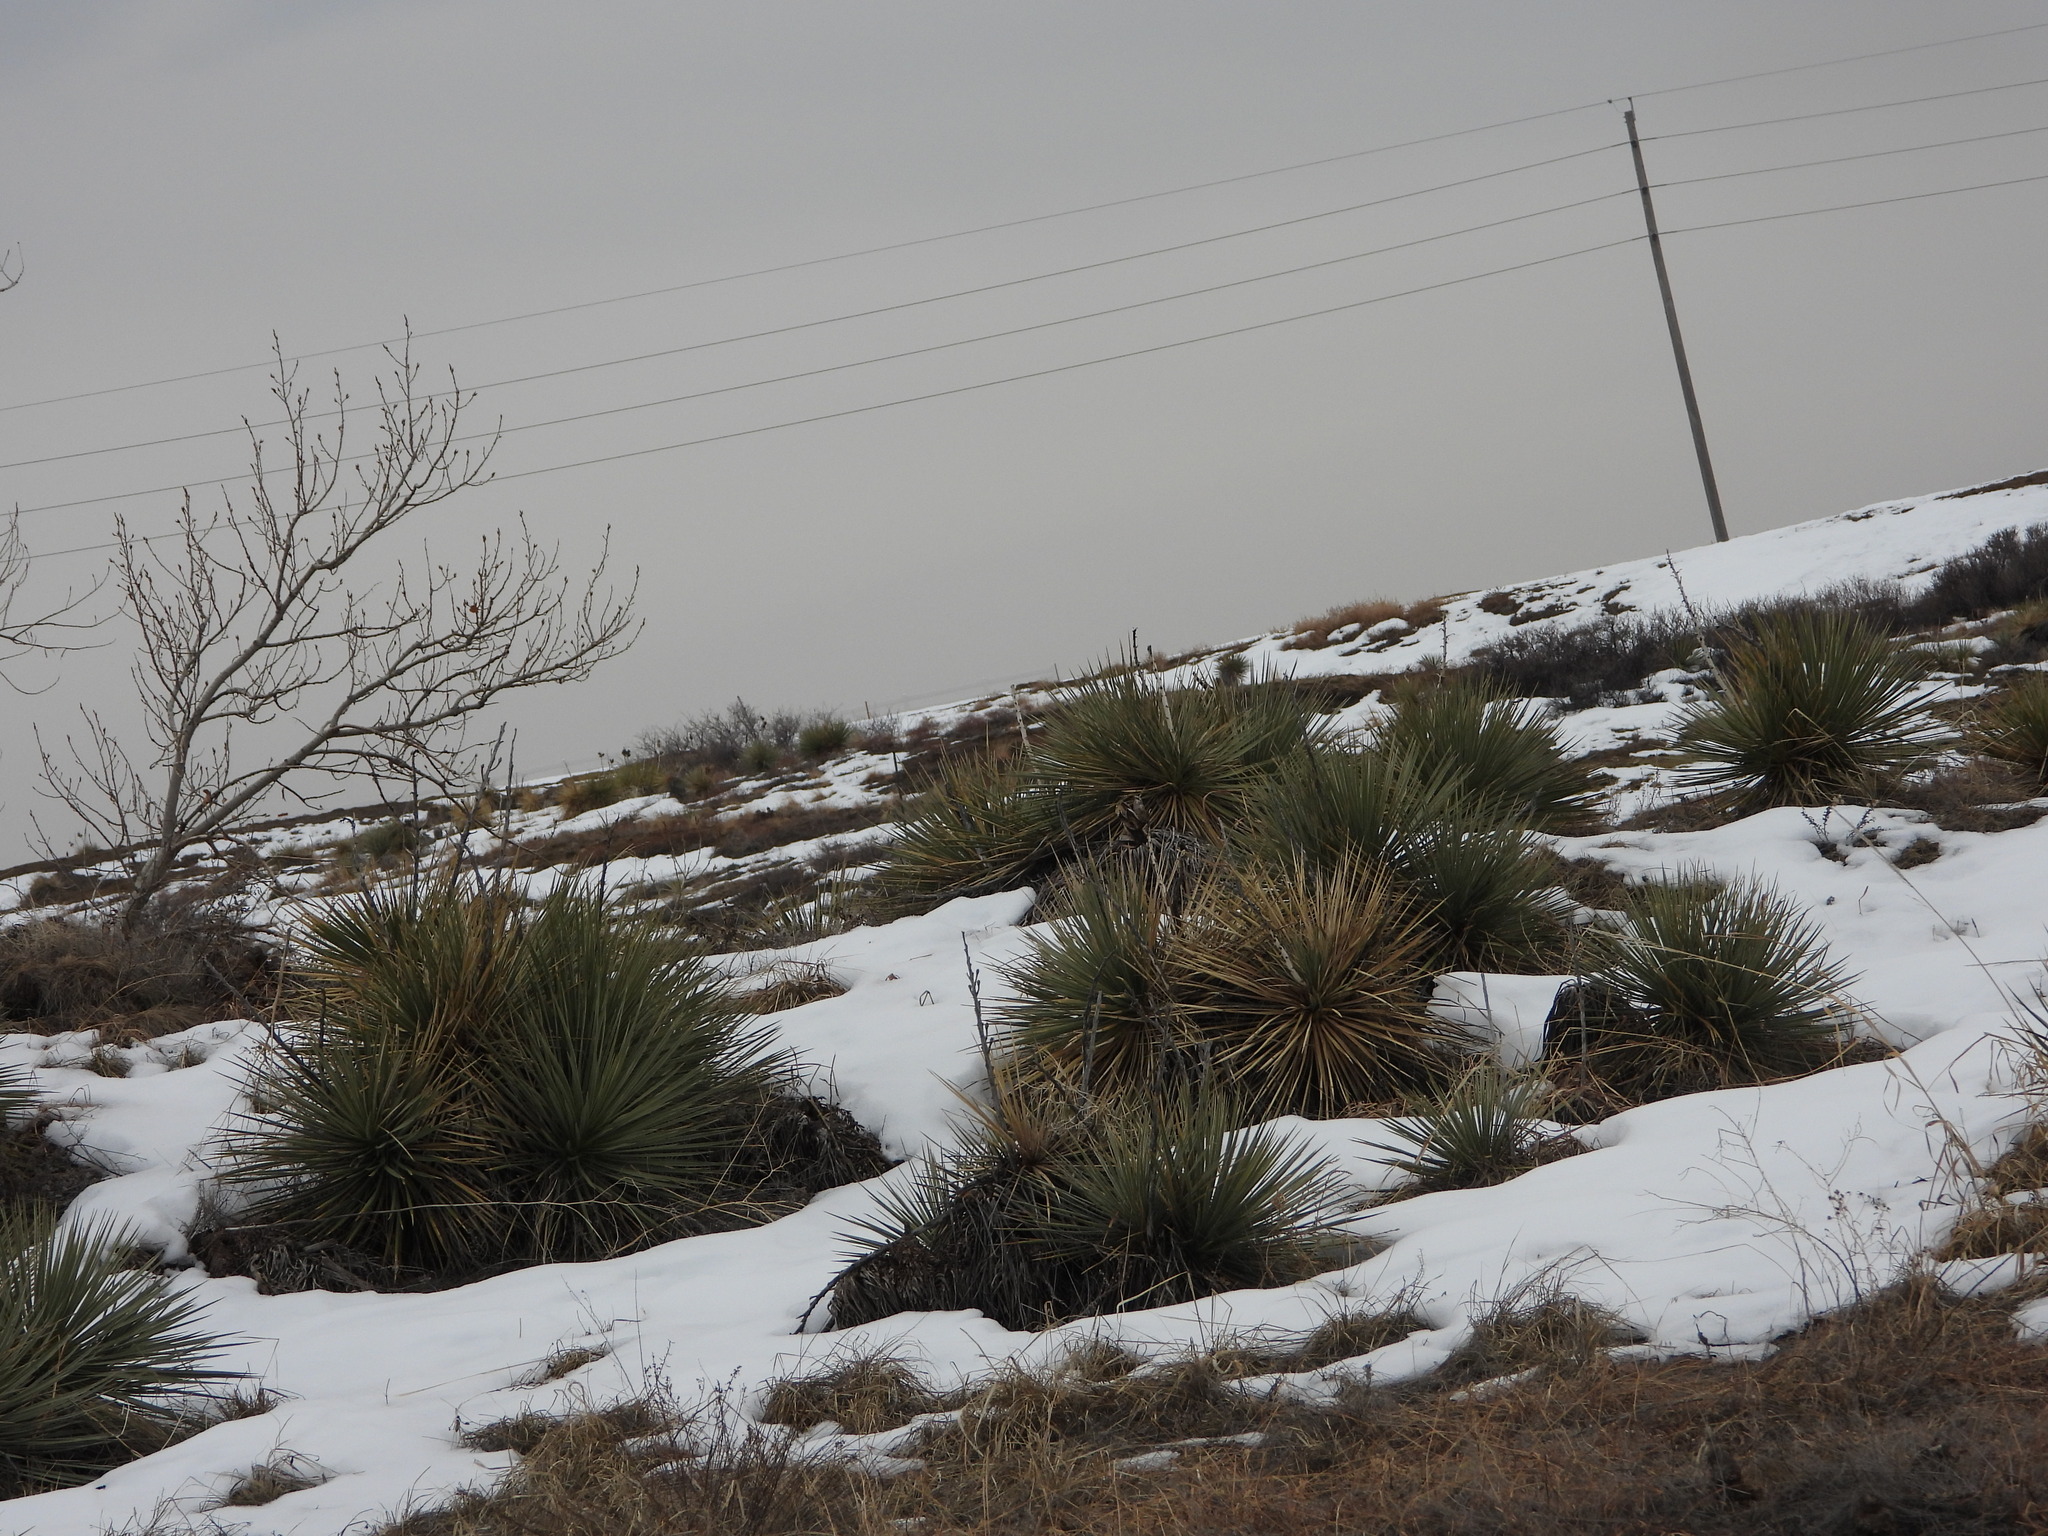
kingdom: Plantae
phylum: Tracheophyta
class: Liliopsida
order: Asparagales
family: Asparagaceae
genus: Yucca
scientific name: Yucca glauca
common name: Great plains yucca
